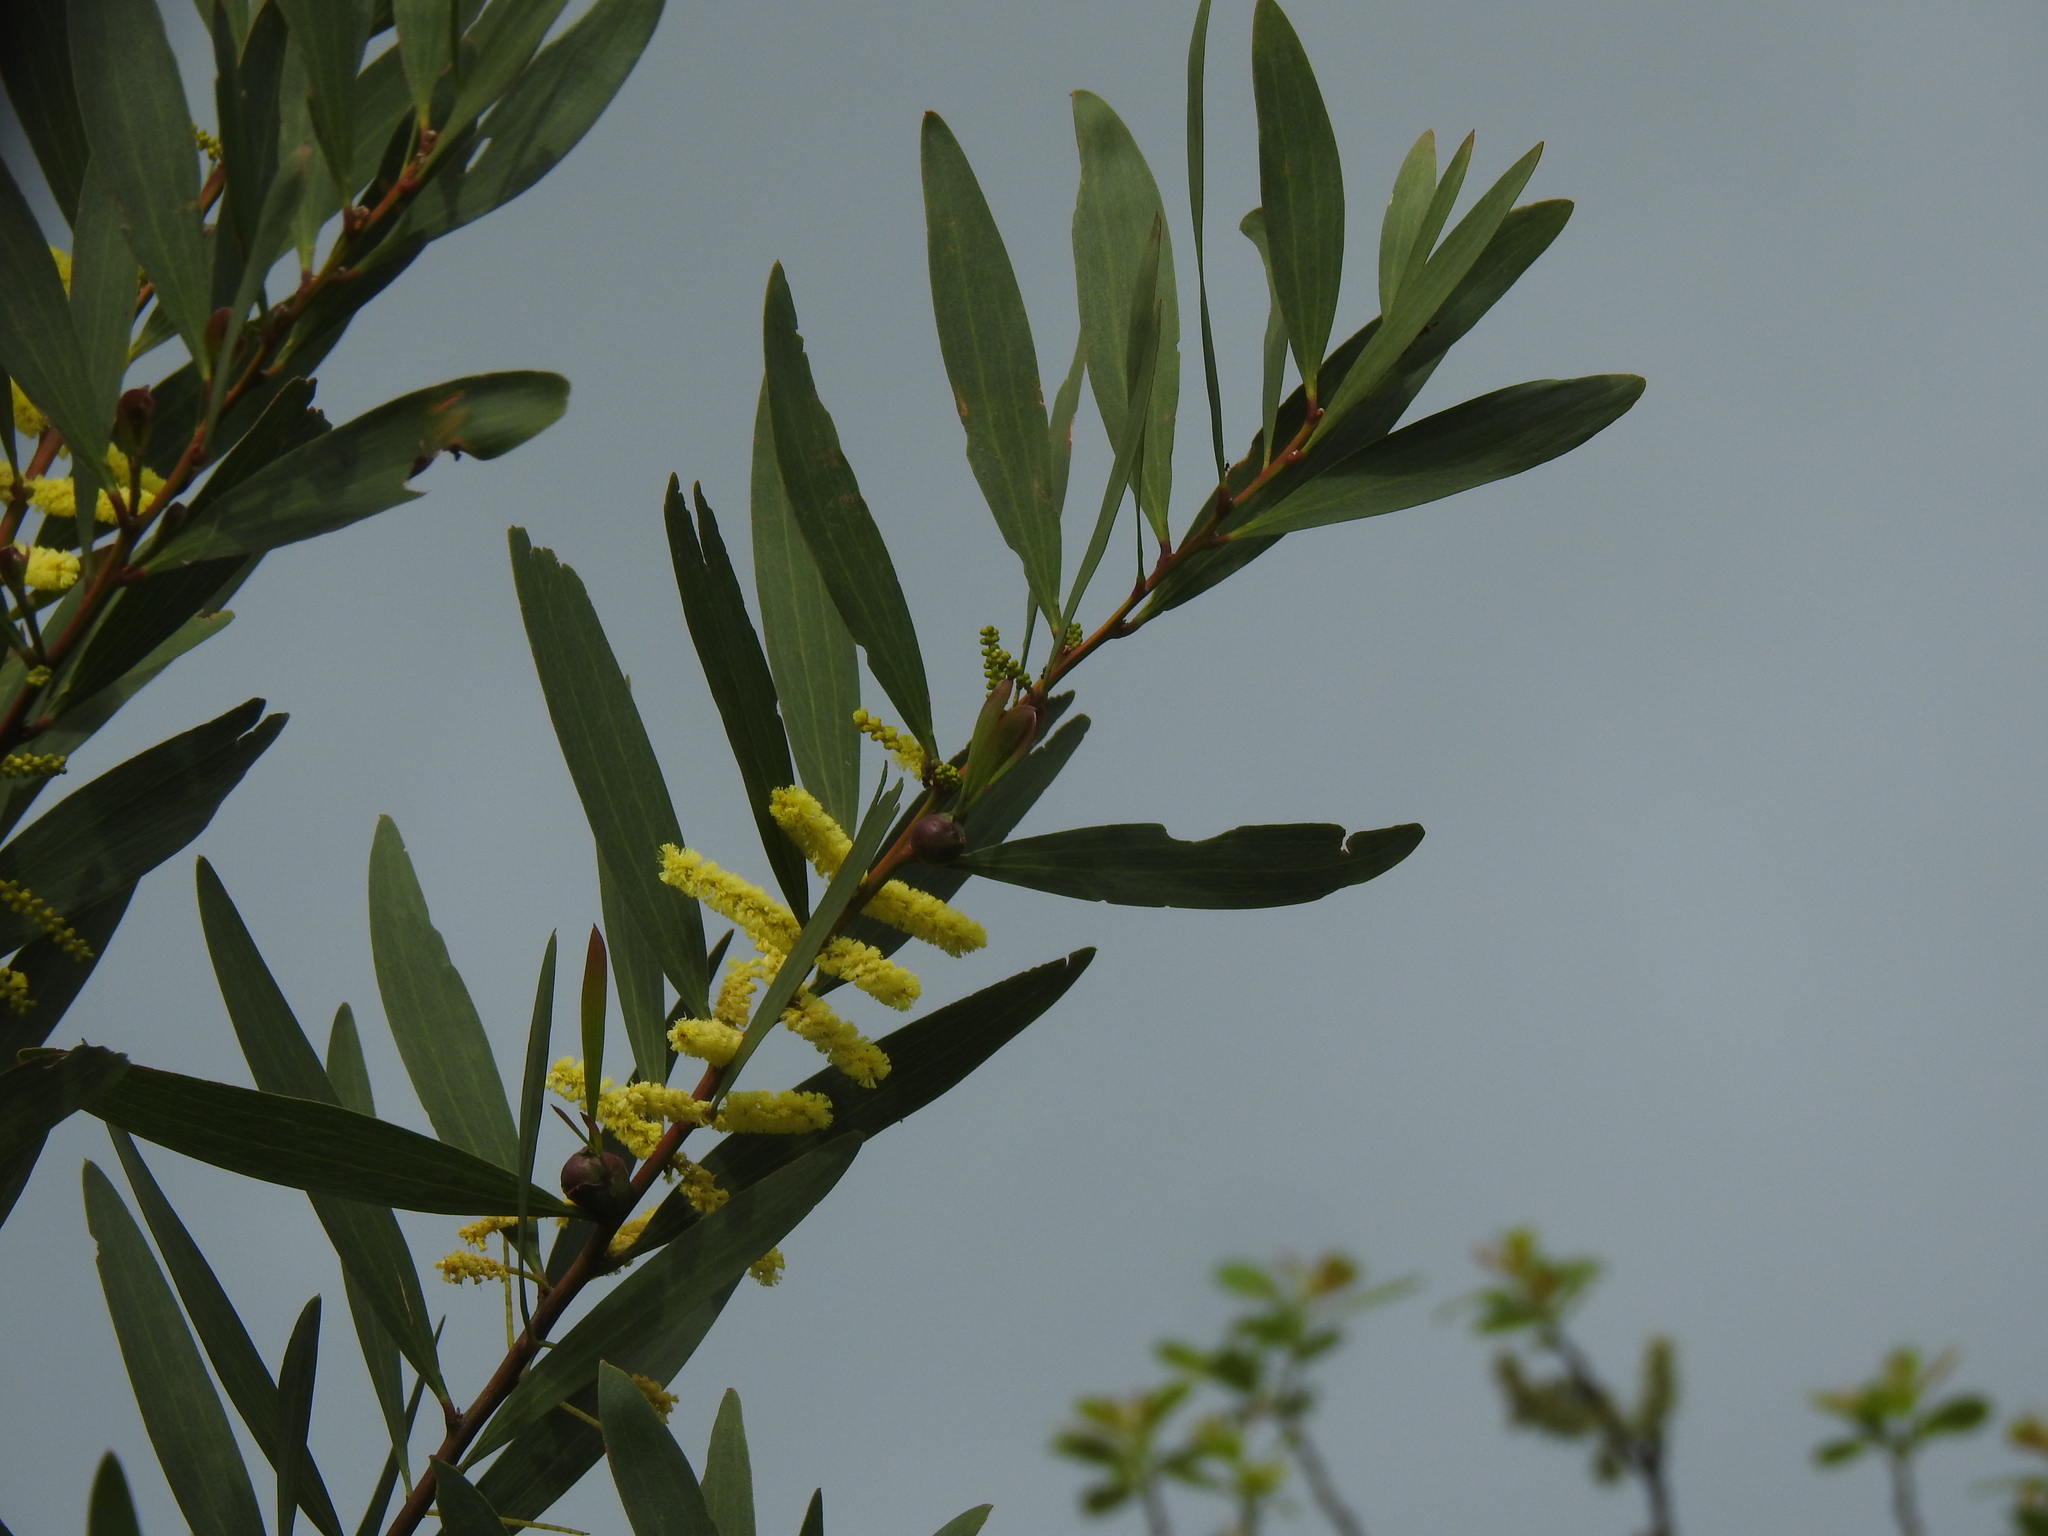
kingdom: Plantae
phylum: Tracheophyta
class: Magnoliopsida
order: Fabales
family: Fabaceae
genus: Acacia
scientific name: Acacia longifolia
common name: Sydney golden wattle
